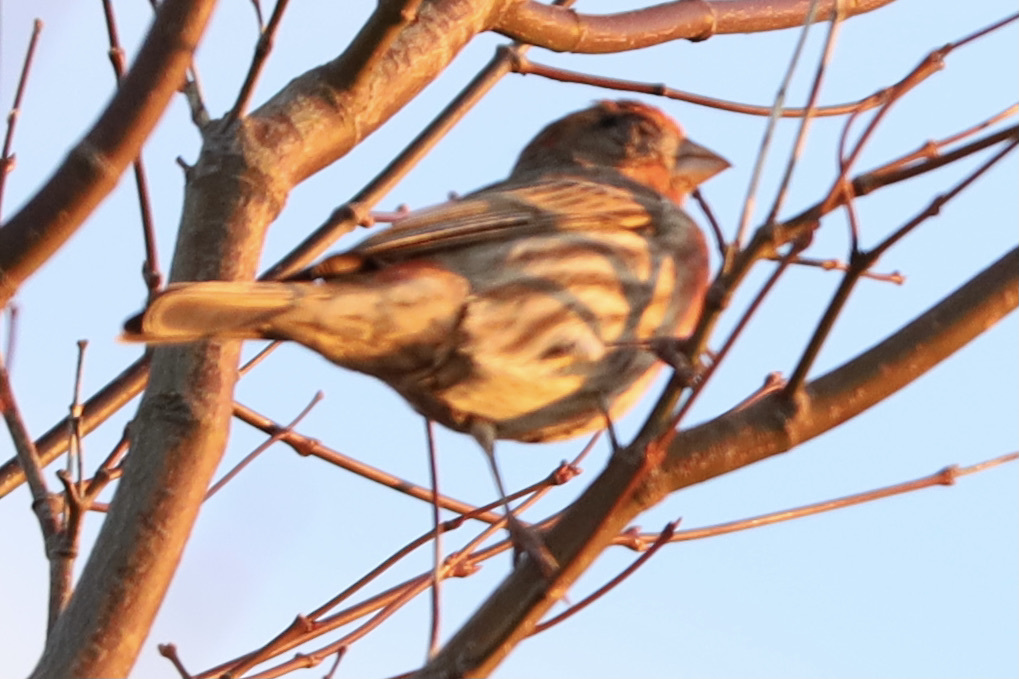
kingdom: Animalia
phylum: Chordata
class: Aves
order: Passeriformes
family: Fringillidae
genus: Haemorhous
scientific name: Haemorhous mexicanus
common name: House finch
